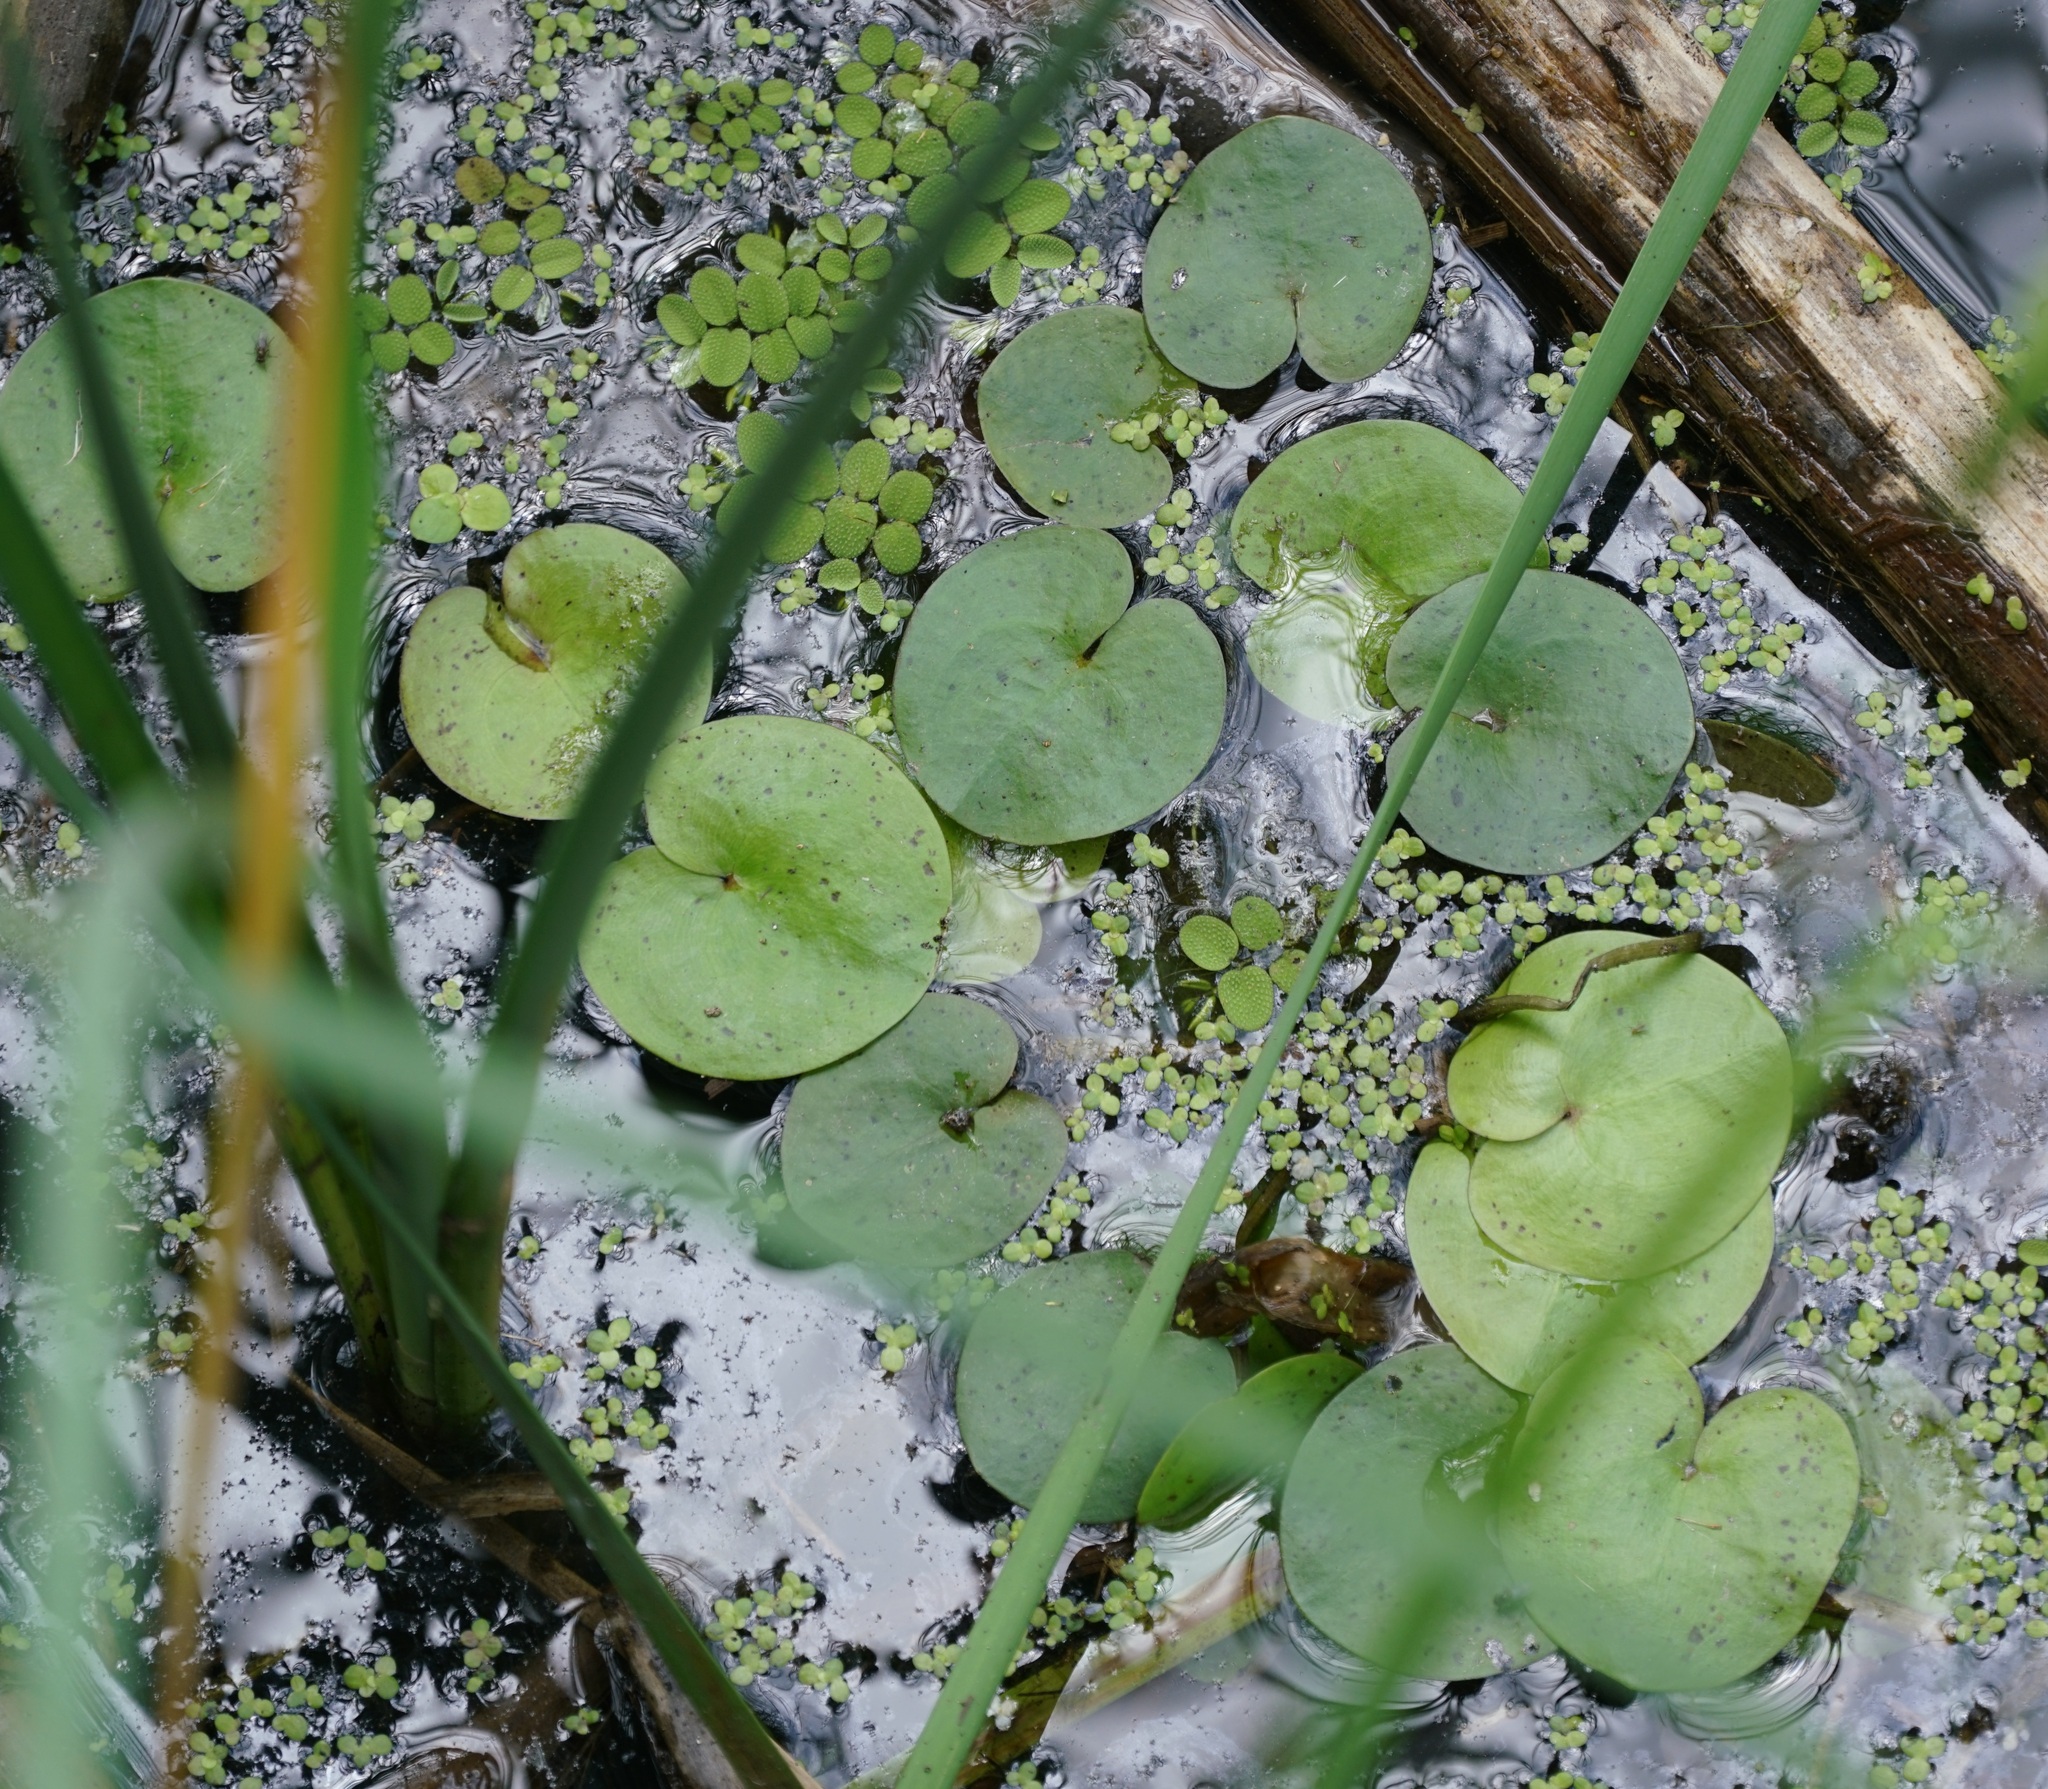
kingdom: Plantae
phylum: Tracheophyta
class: Liliopsida
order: Alismatales
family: Hydrocharitaceae
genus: Hydrocharis
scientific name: Hydrocharis morsus-ranae
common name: Frogbit
